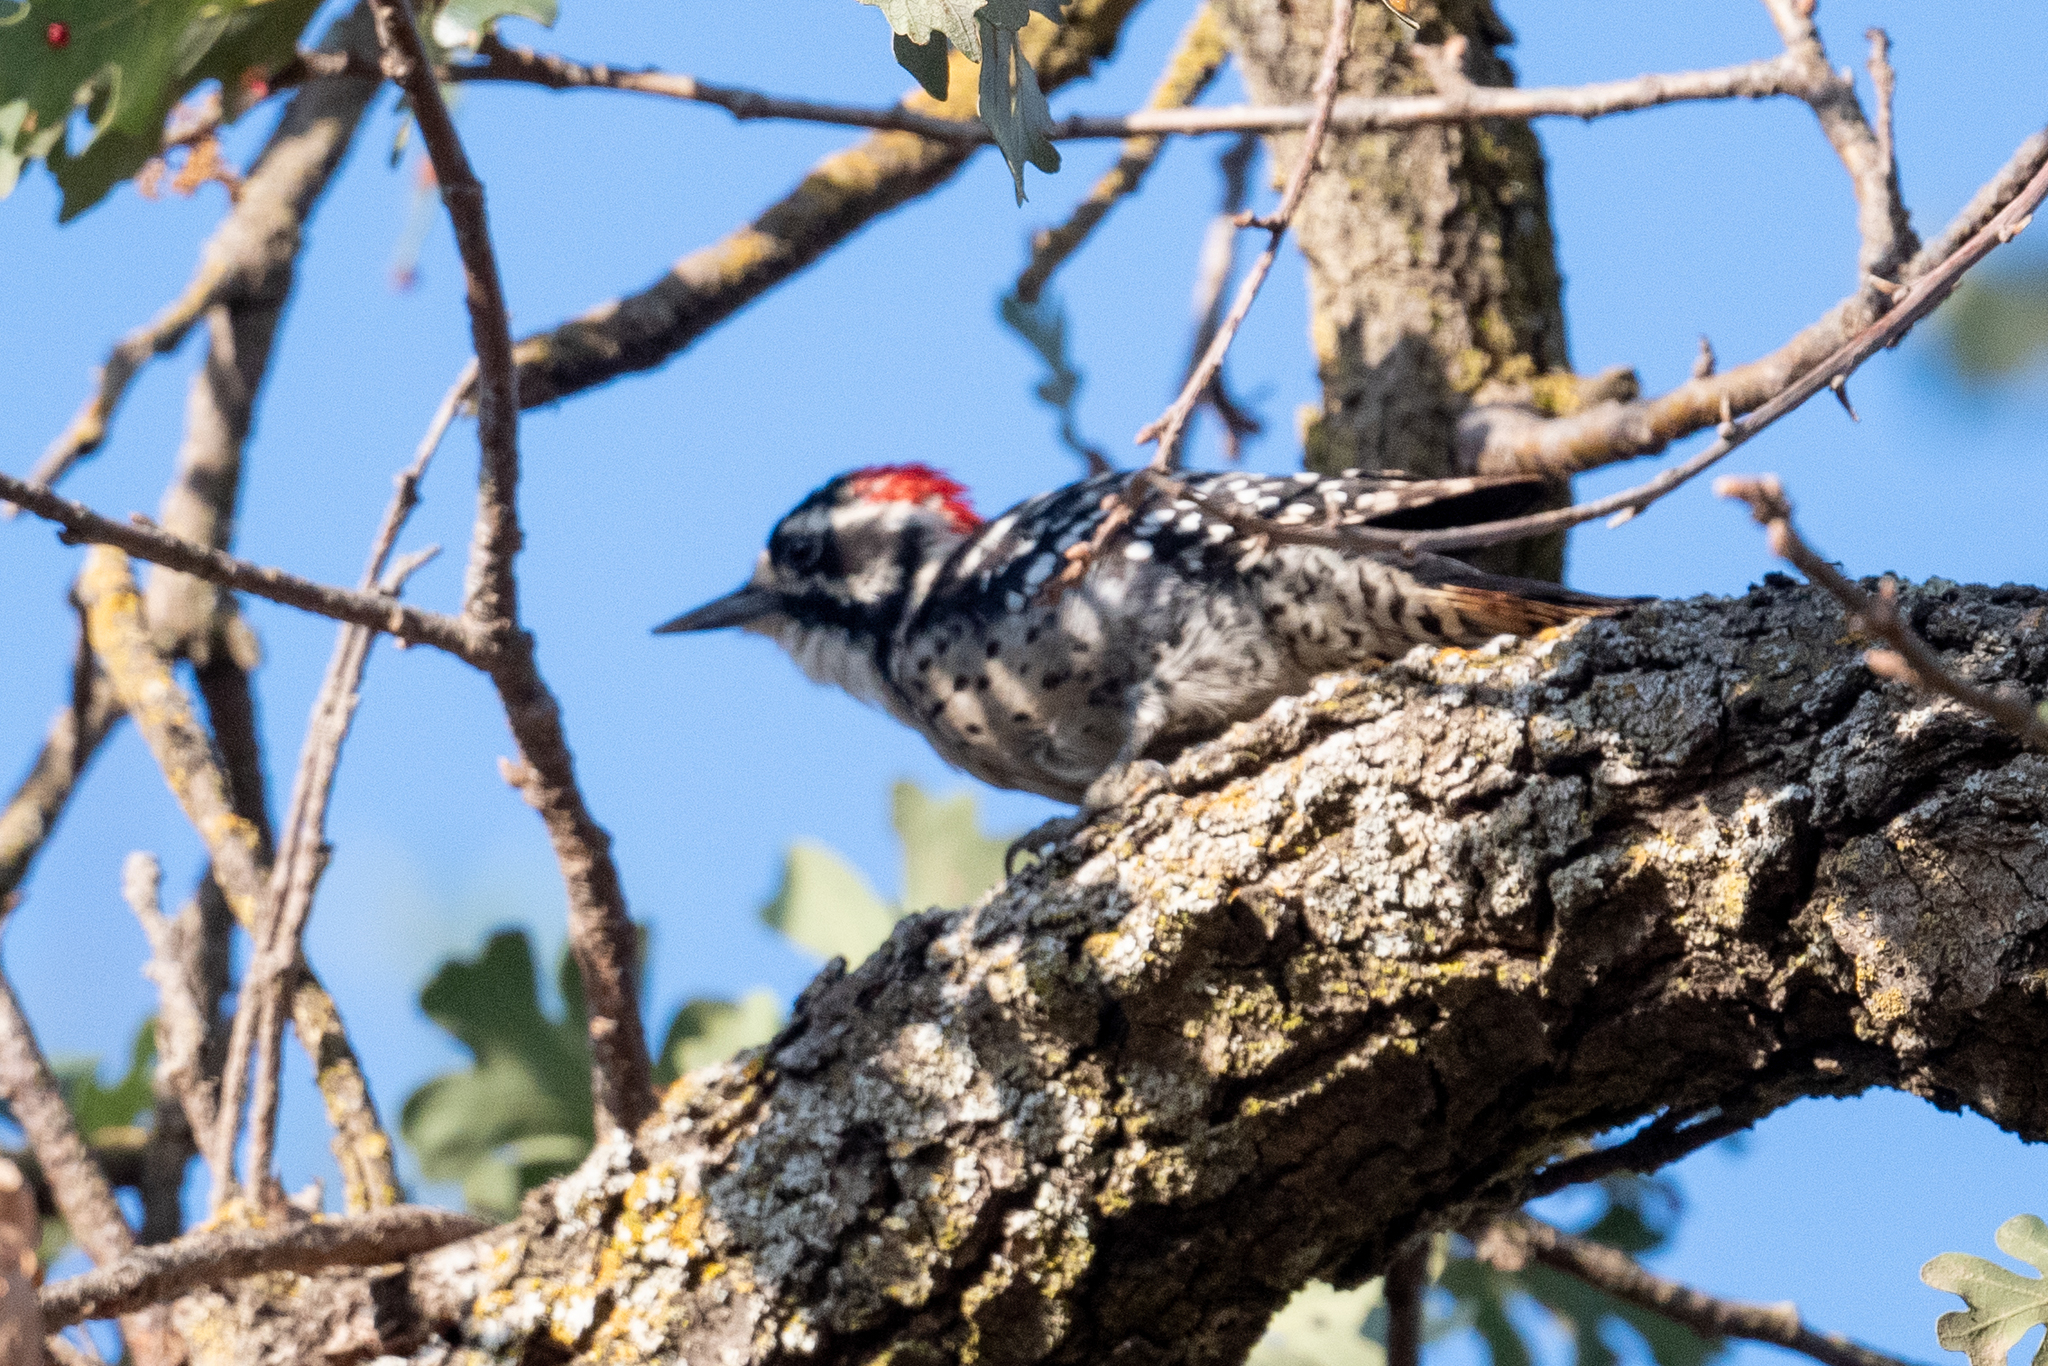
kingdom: Animalia
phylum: Chordata
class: Aves
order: Piciformes
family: Picidae
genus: Dryobates
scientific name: Dryobates nuttallii
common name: Nuttall's woodpecker
